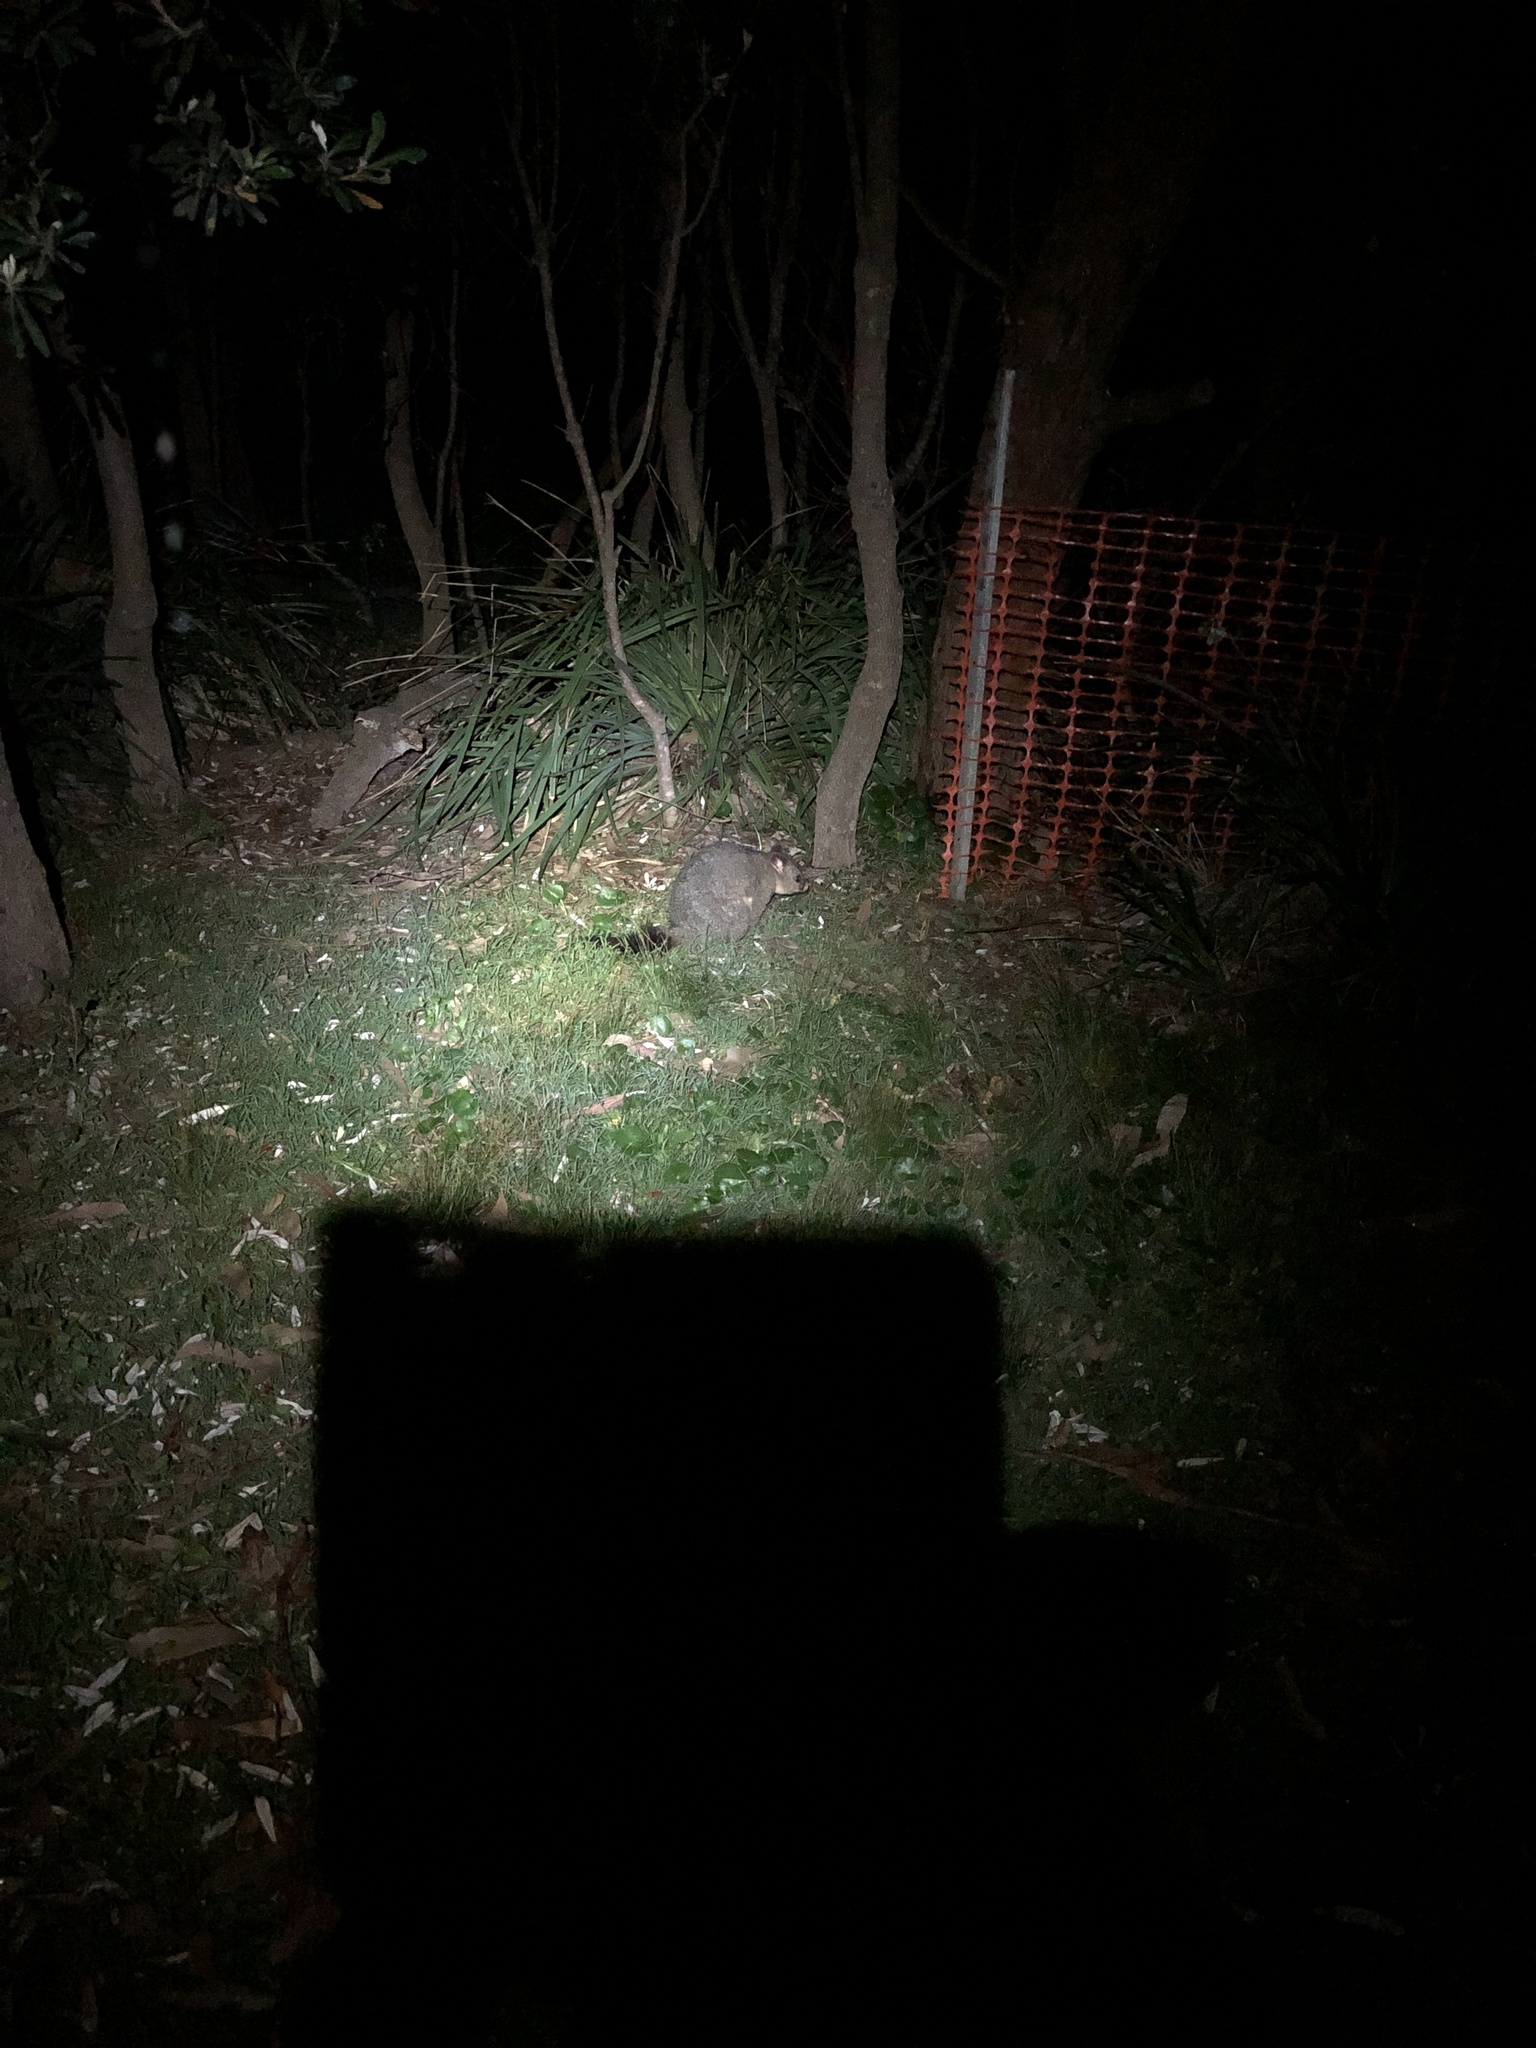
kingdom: Animalia
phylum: Chordata
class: Mammalia
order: Diprotodontia
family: Phalangeridae
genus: Trichosurus
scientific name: Trichosurus vulpecula
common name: Common brushtail
